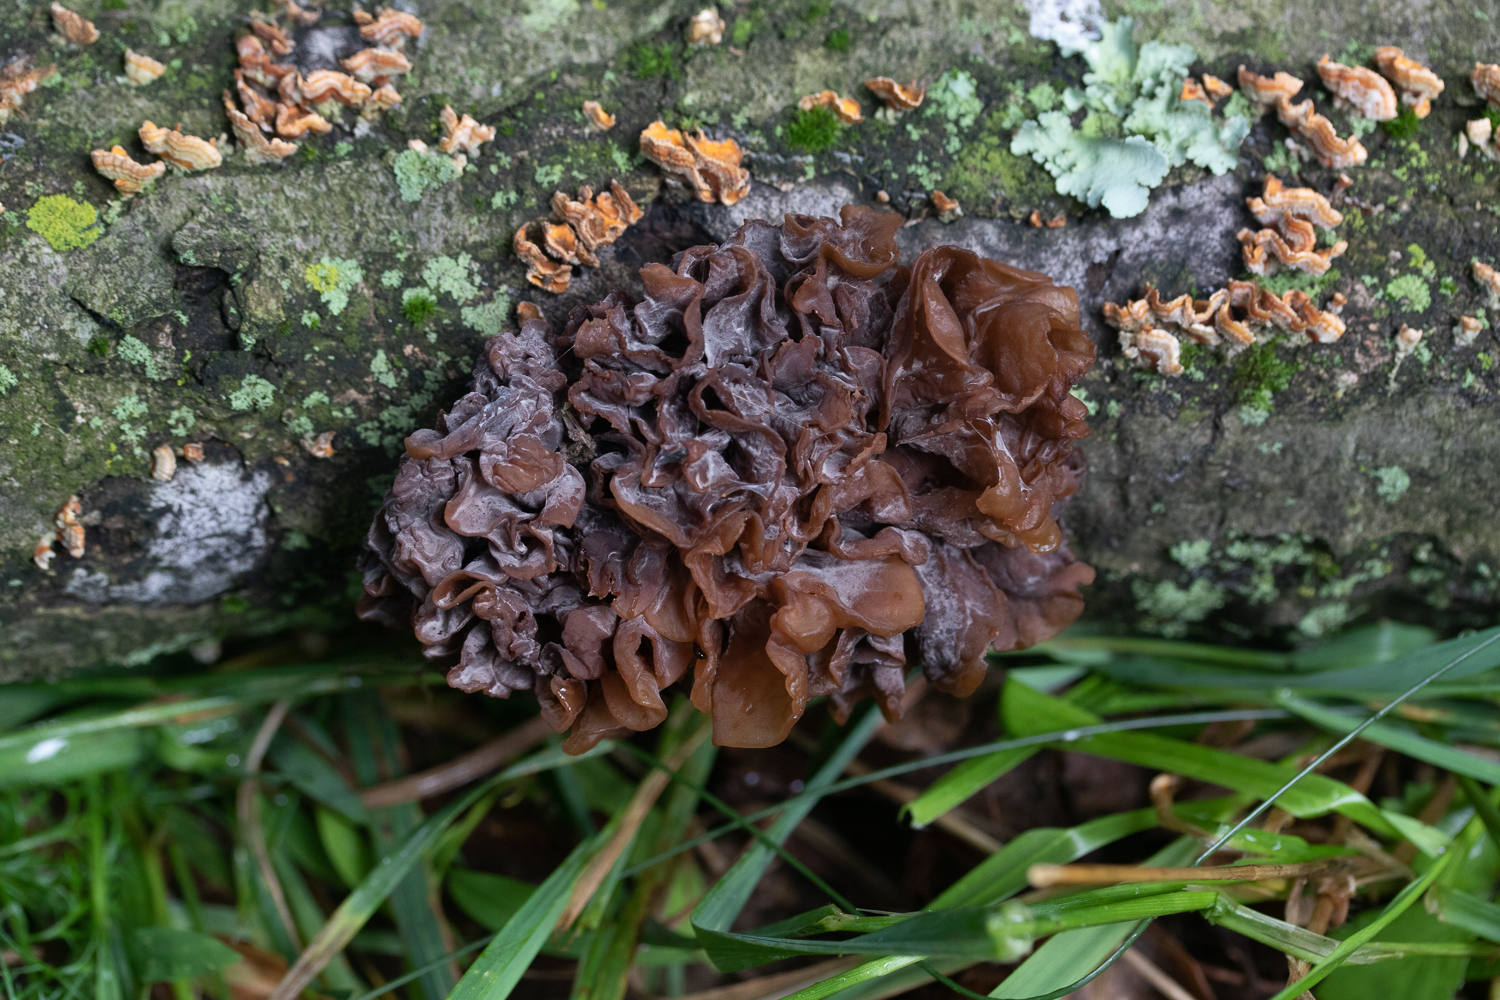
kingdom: Fungi
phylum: Basidiomycota
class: Tremellomycetes
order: Tremellales
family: Tremellaceae
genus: Phaeotremella
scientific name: Phaeotremella foliacea
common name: Leafy brain
